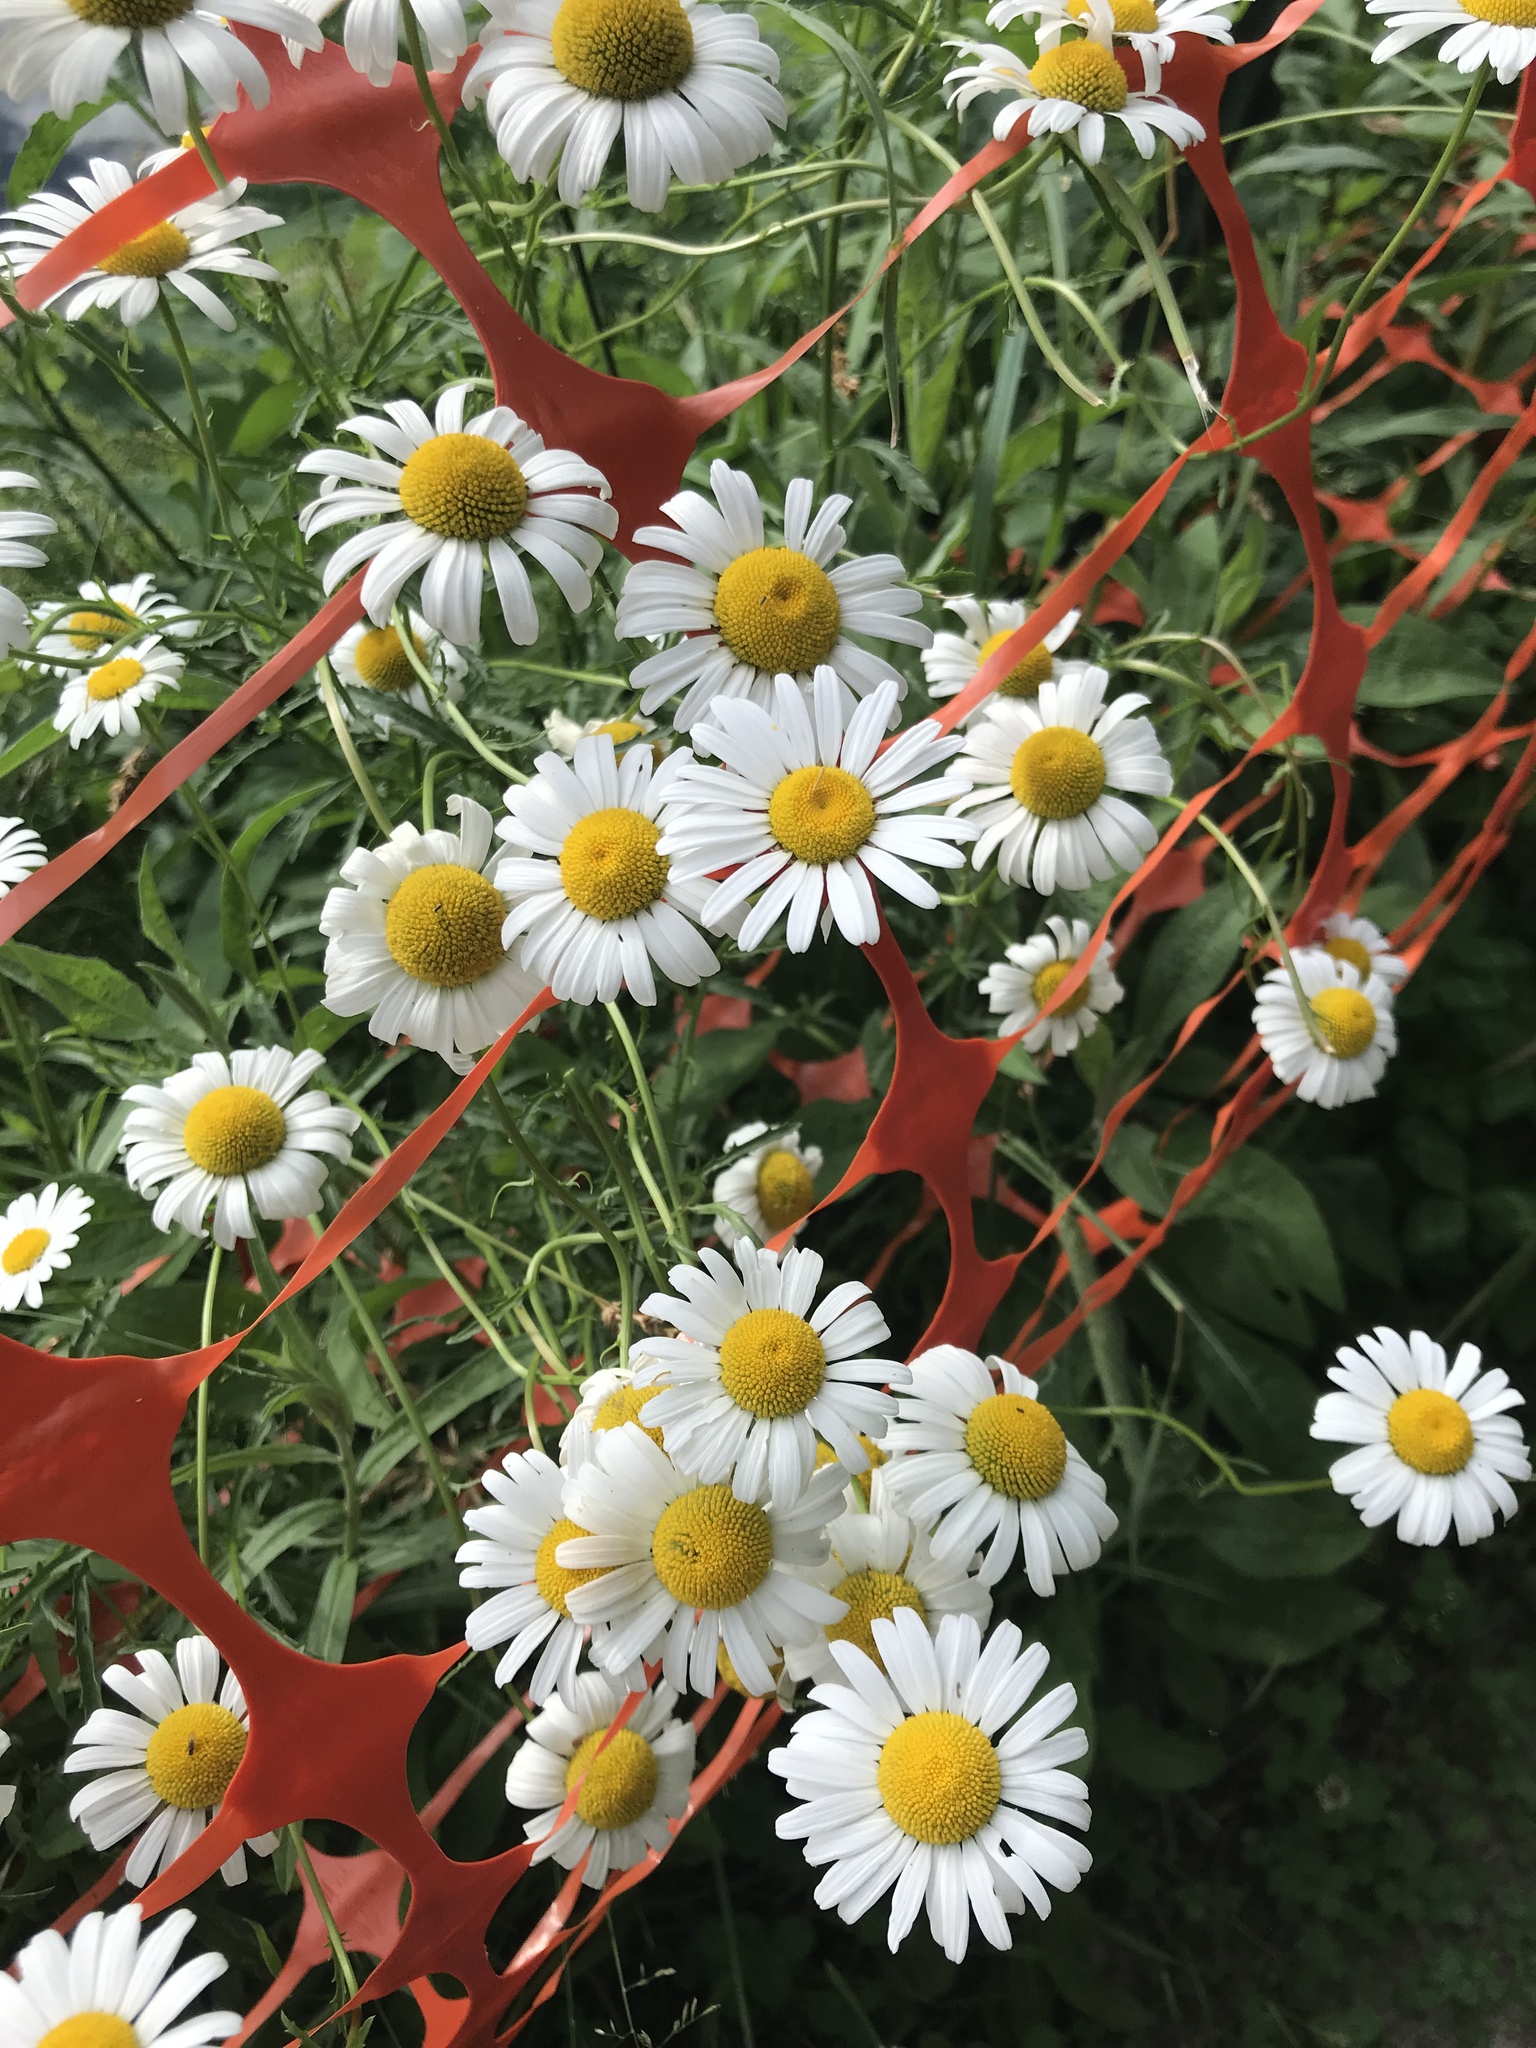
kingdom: Plantae
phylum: Tracheophyta
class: Magnoliopsida
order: Asterales
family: Asteraceae
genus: Leucanthemum
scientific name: Leucanthemum vulgare
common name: Oxeye daisy
